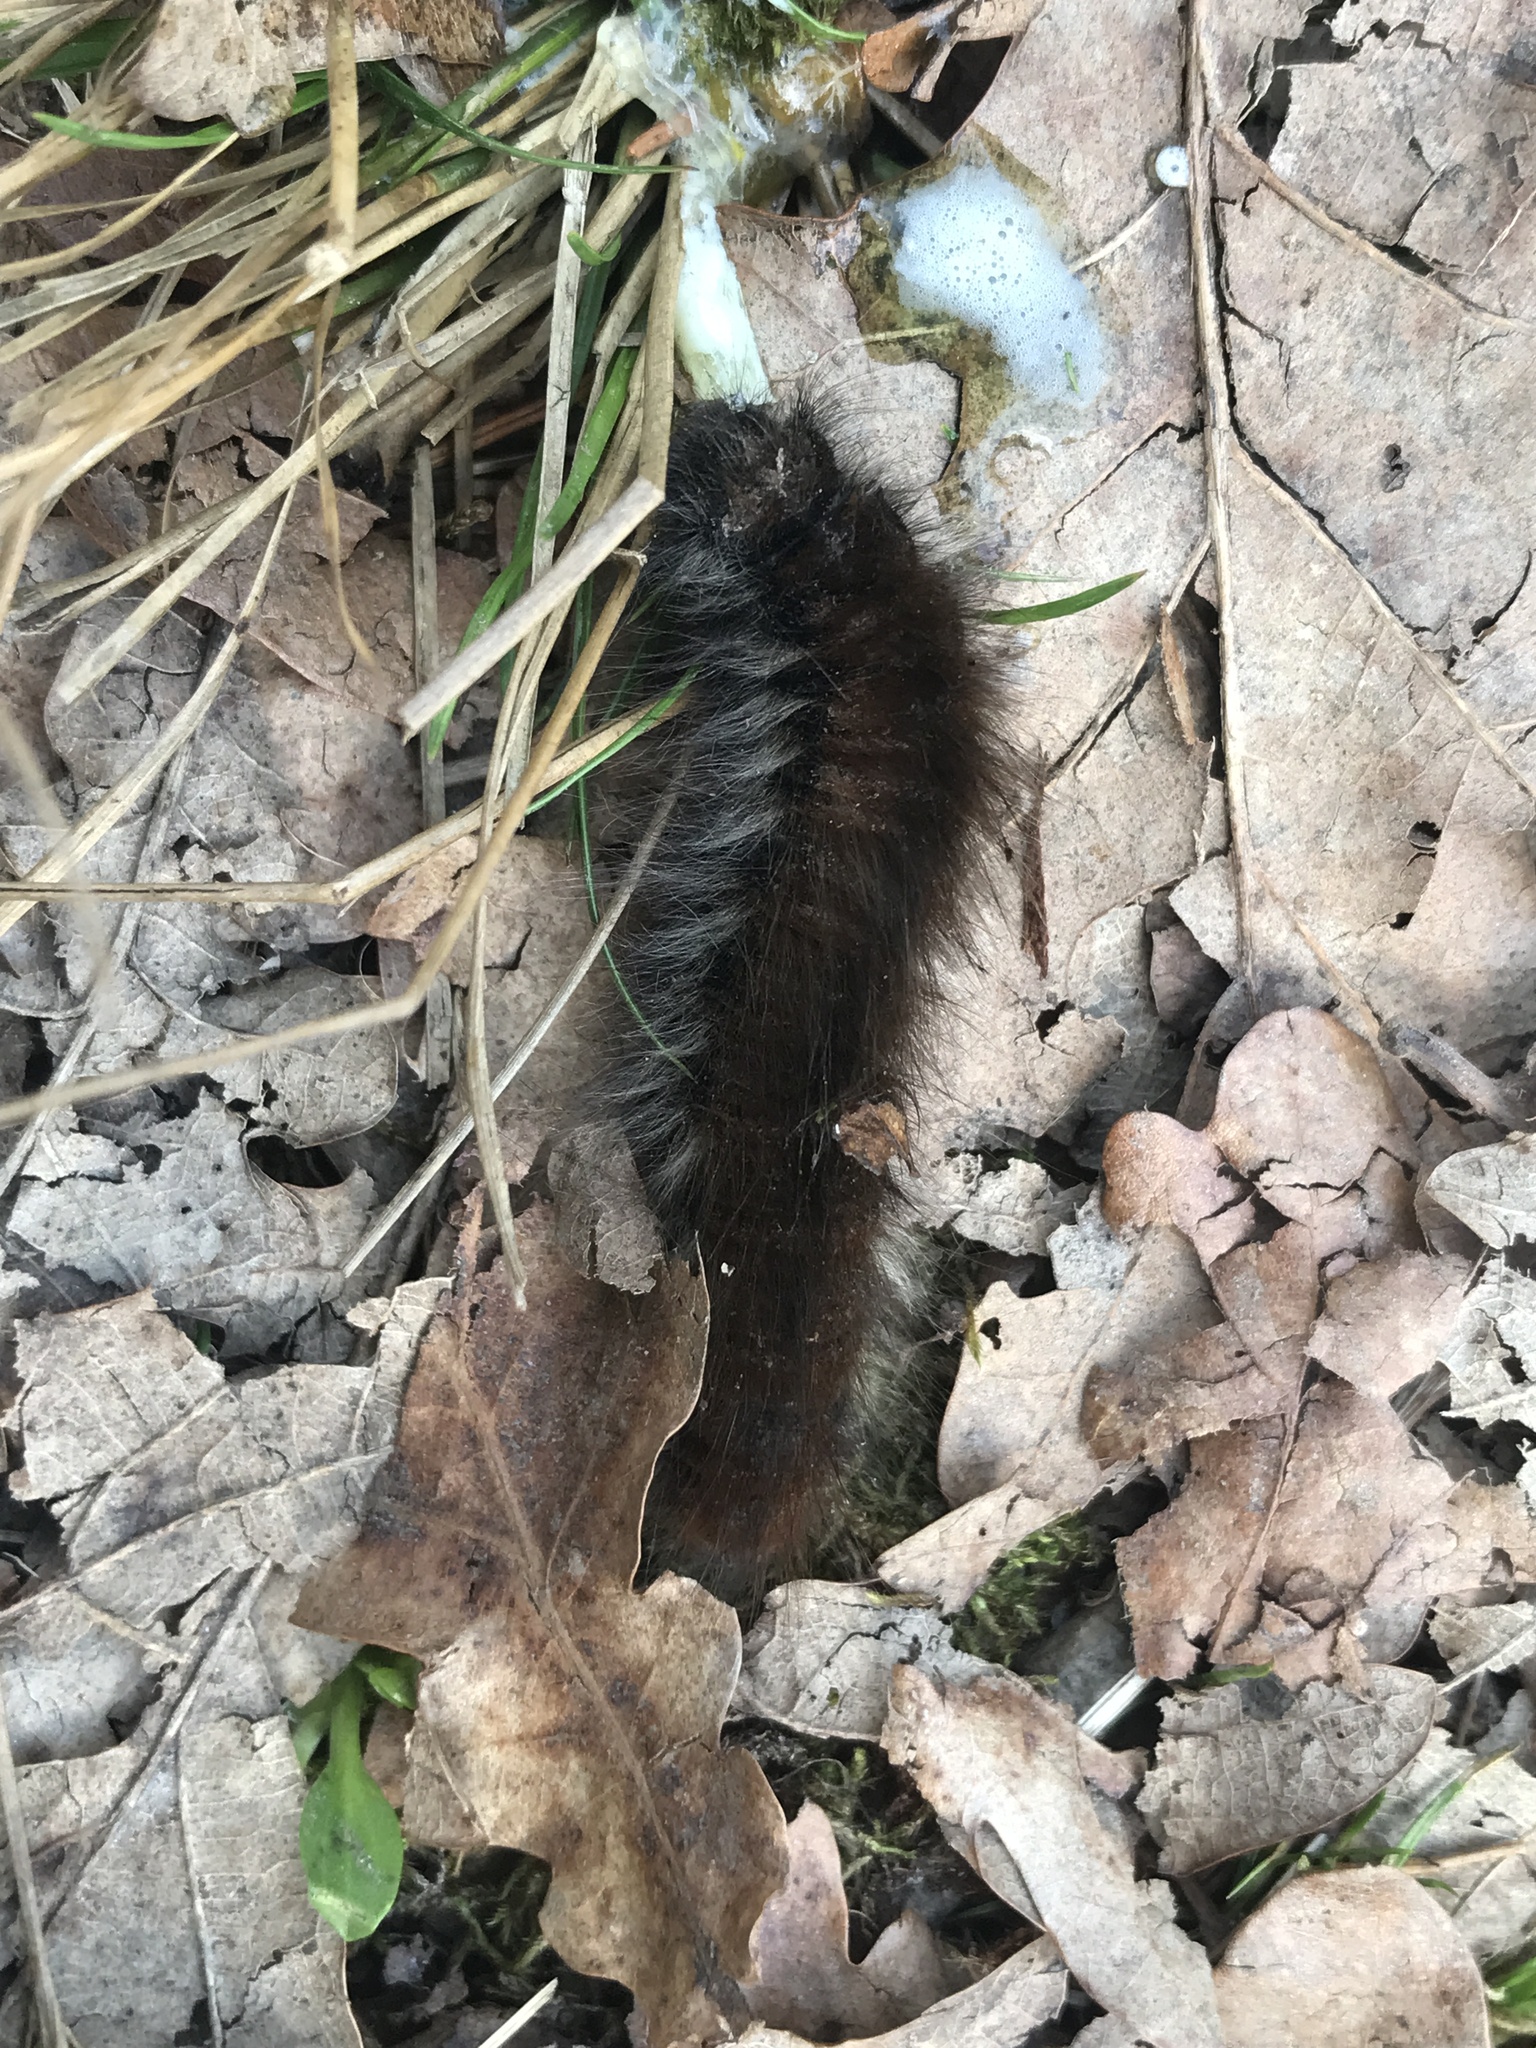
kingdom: Animalia
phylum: Arthropoda
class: Insecta
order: Lepidoptera
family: Lasiocampidae
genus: Macrothylacia
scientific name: Macrothylacia rubi
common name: Fox moth
